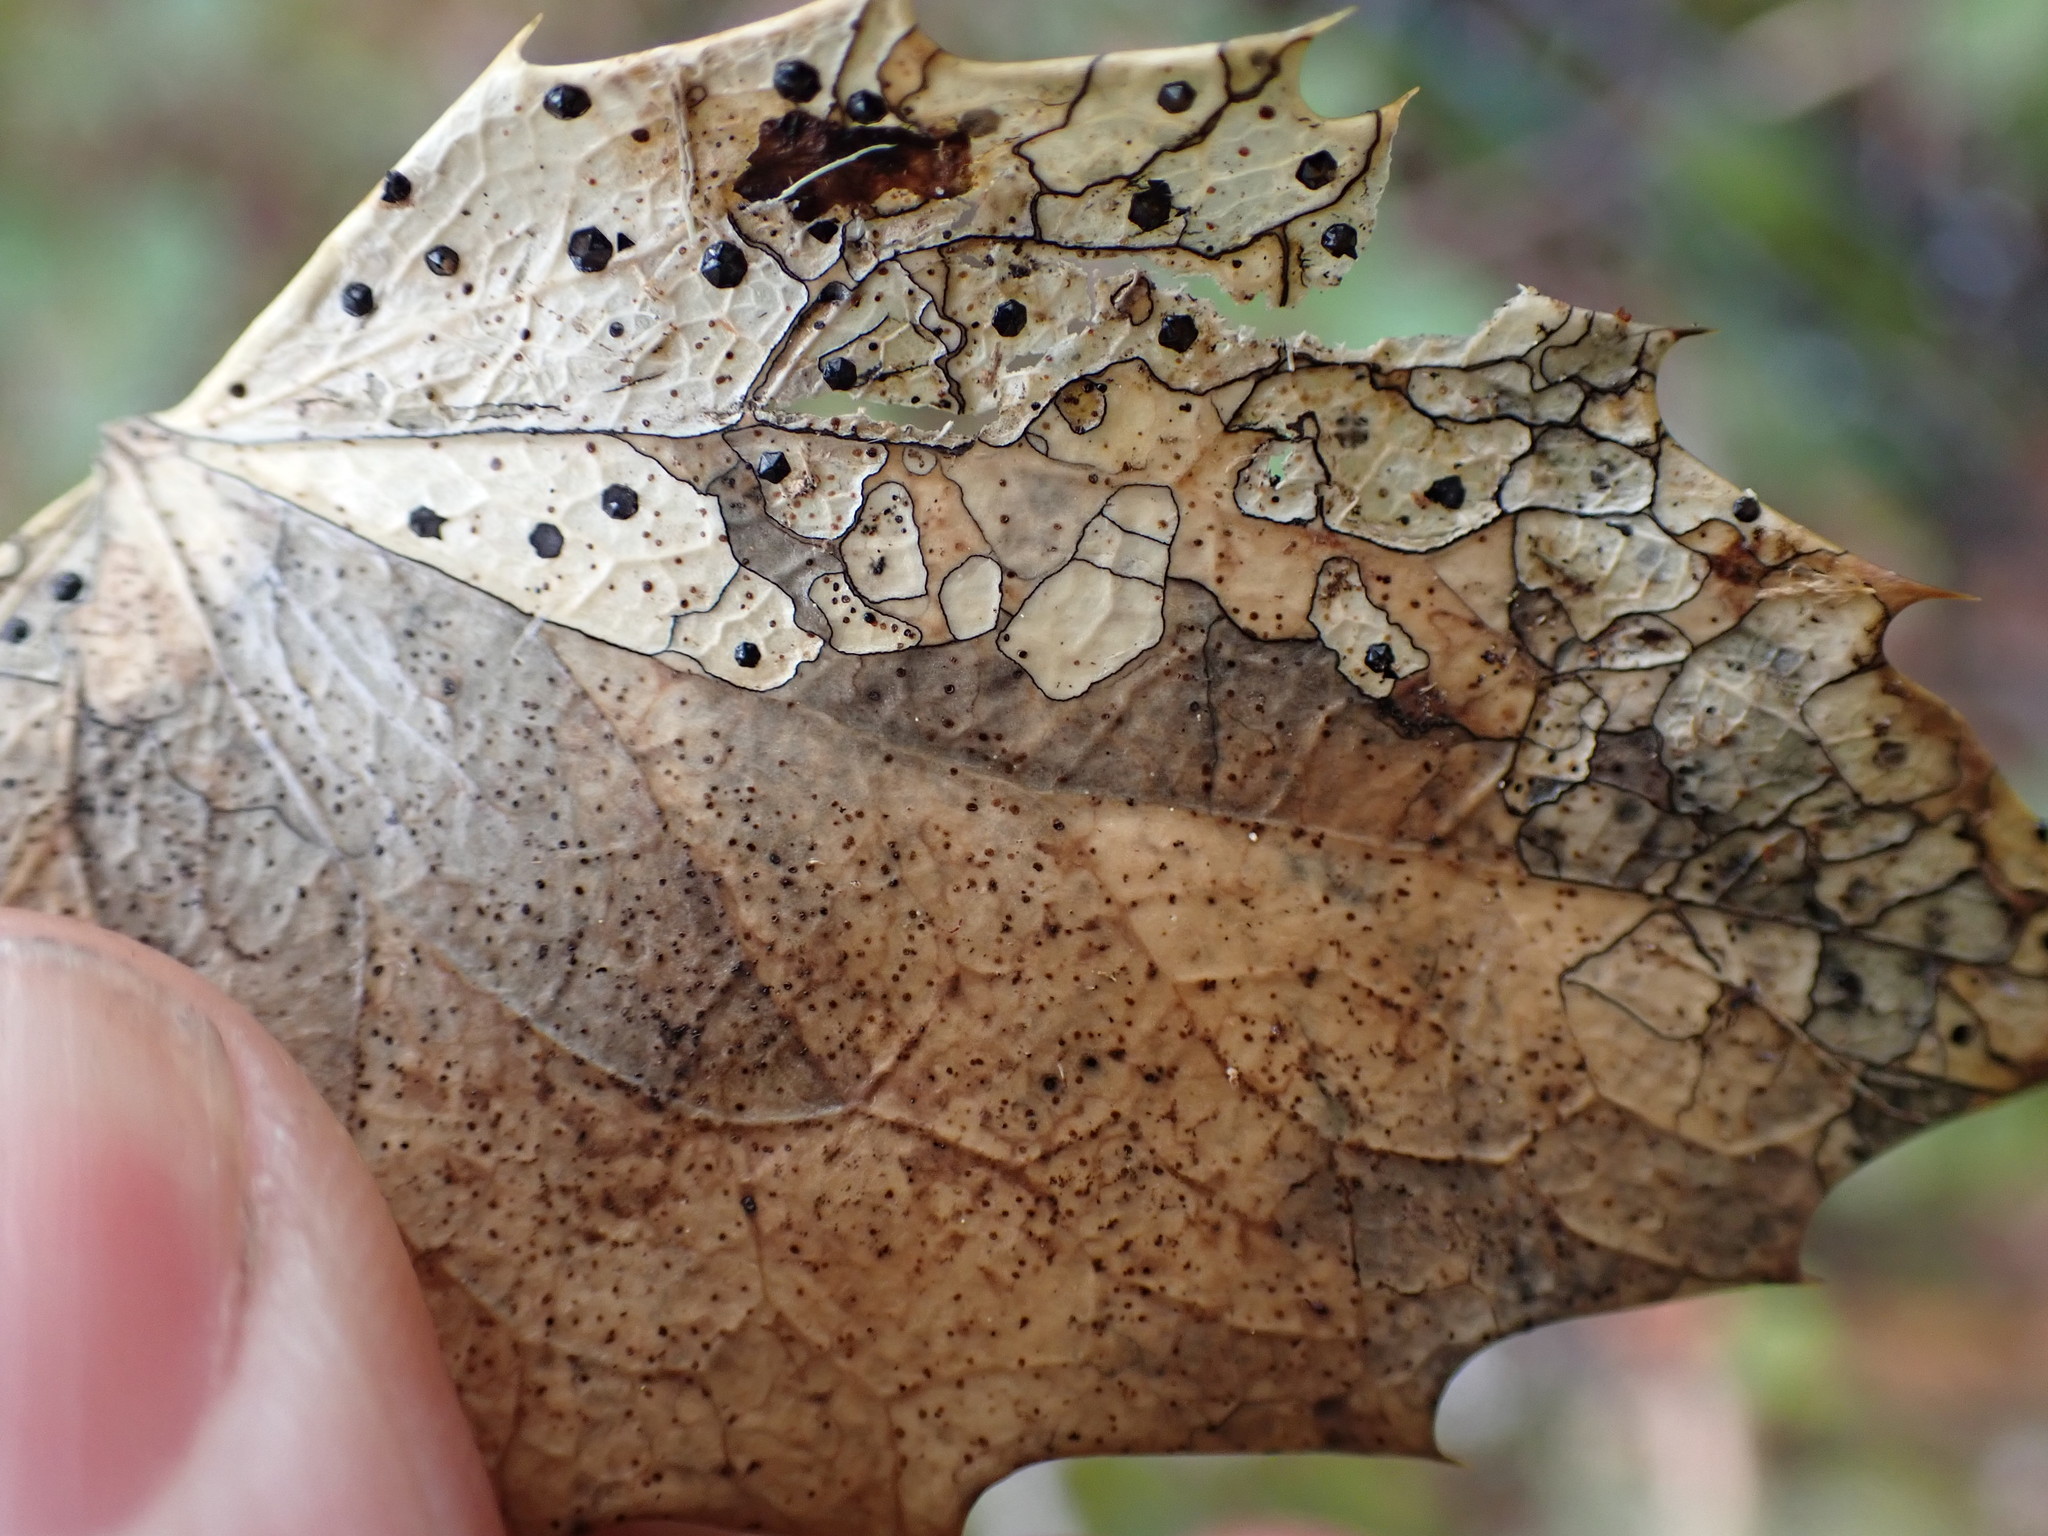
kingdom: Fungi
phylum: Ascomycota
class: Leotiomycetes
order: Rhytismatales
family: Rhytismataceae
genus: Coccomyces
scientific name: Coccomyces dentatus
